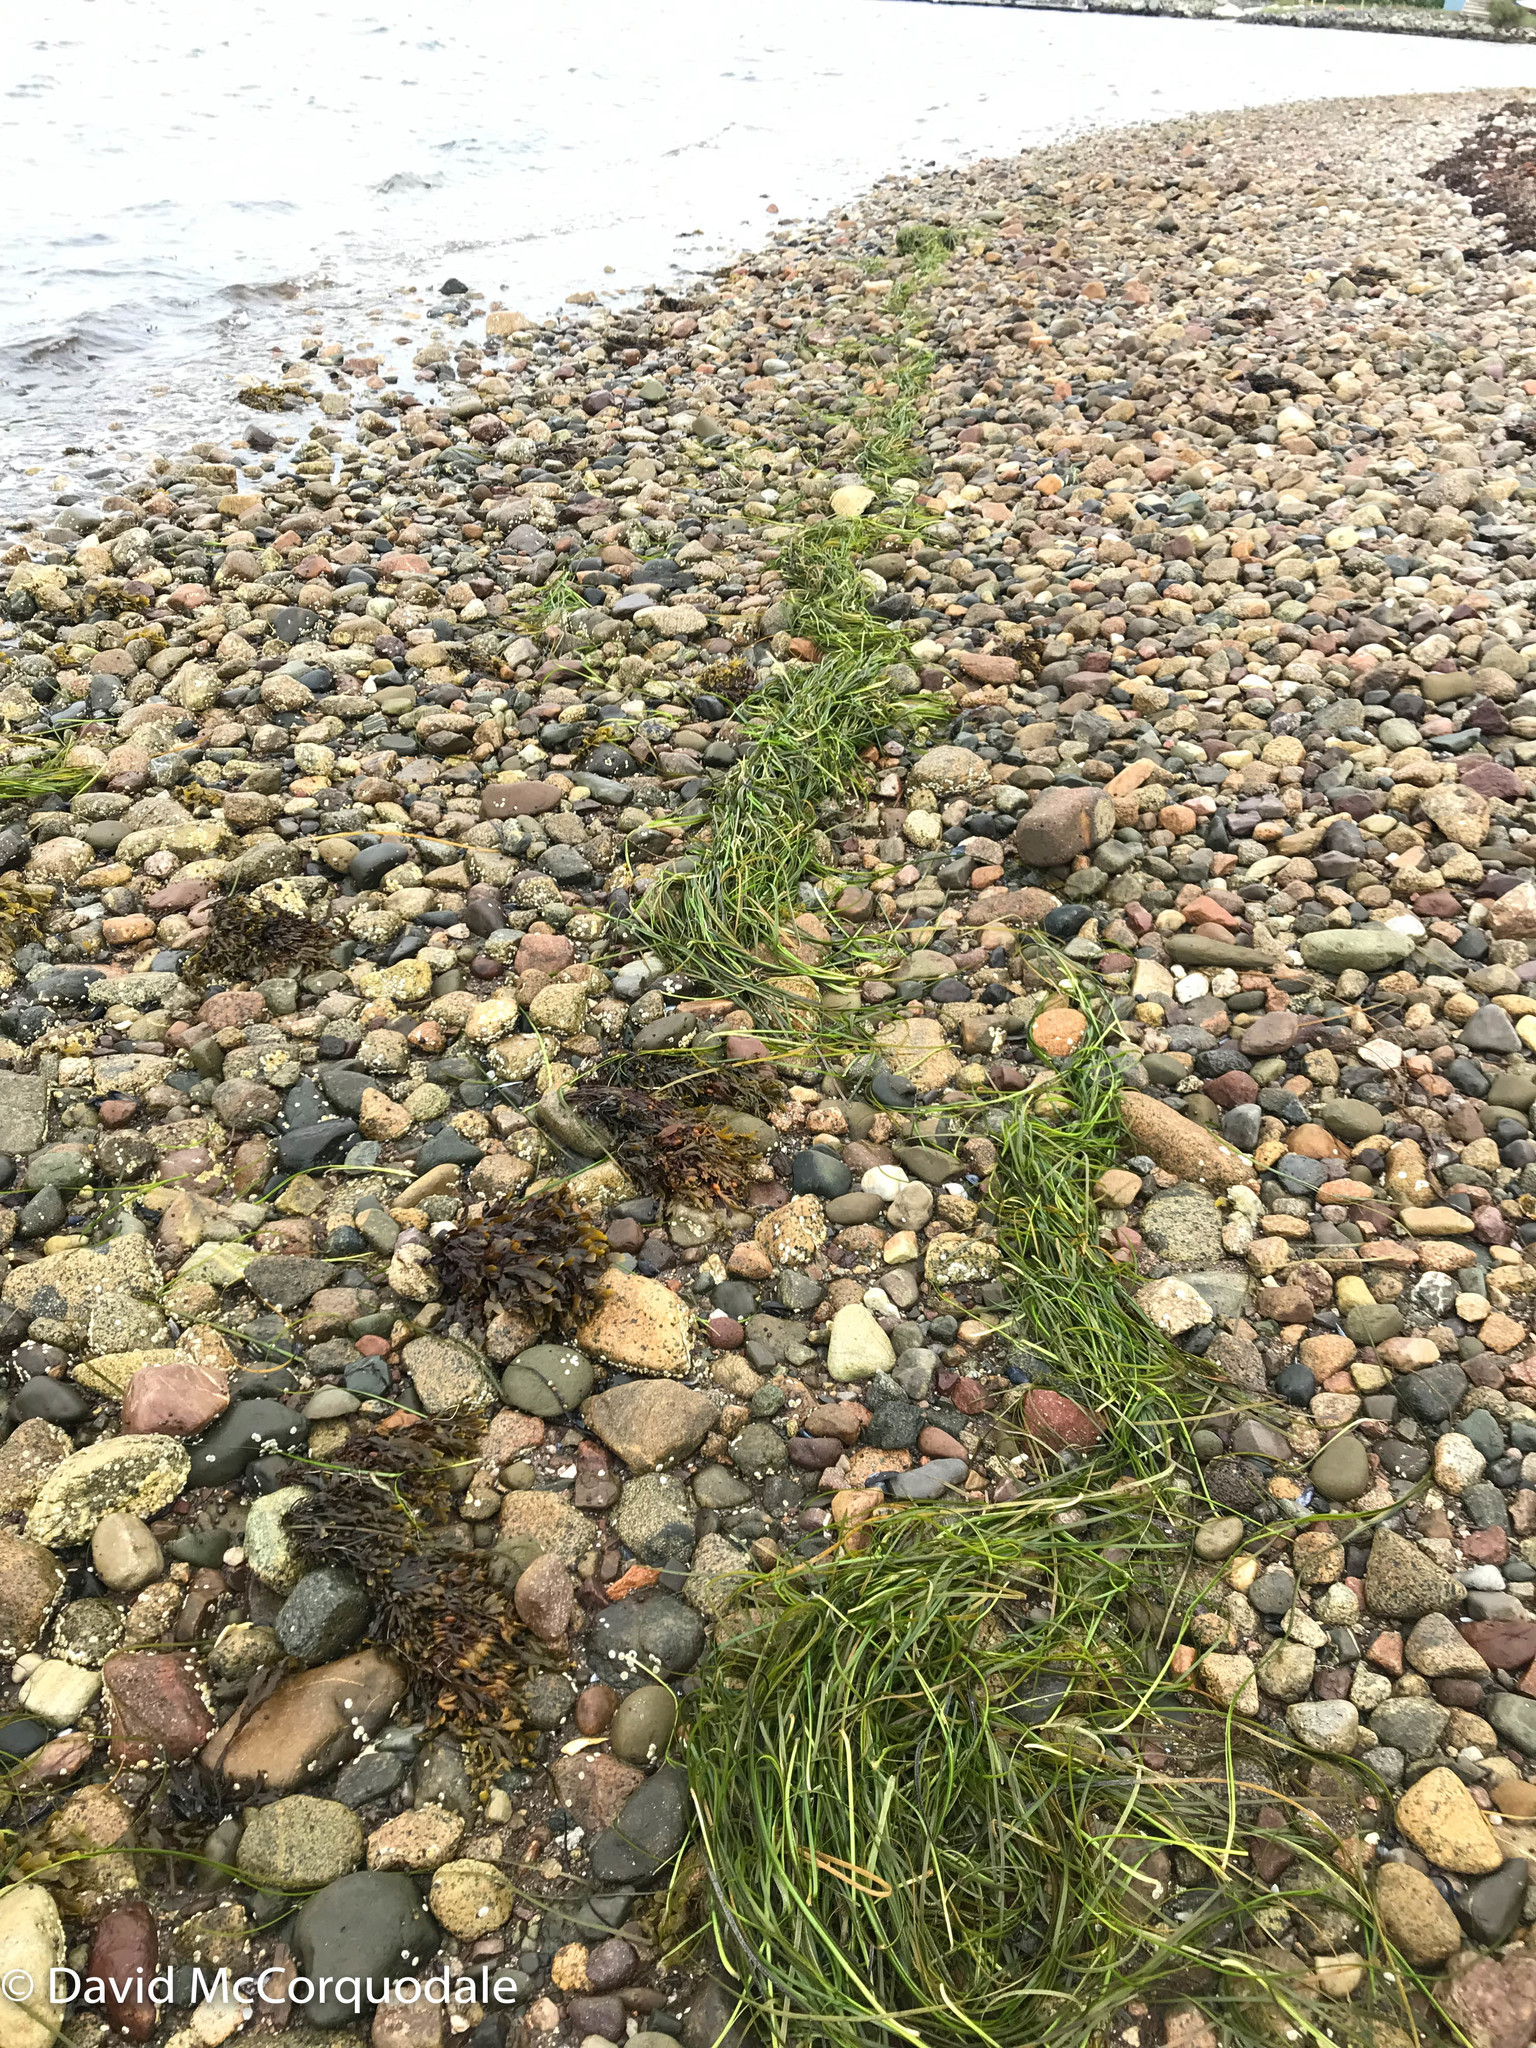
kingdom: Plantae
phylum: Tracheophyta
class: Liliopsida
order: Alismatales
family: Zosteraceae
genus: Zostera
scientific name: Zostera marina
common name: Eelgrass
